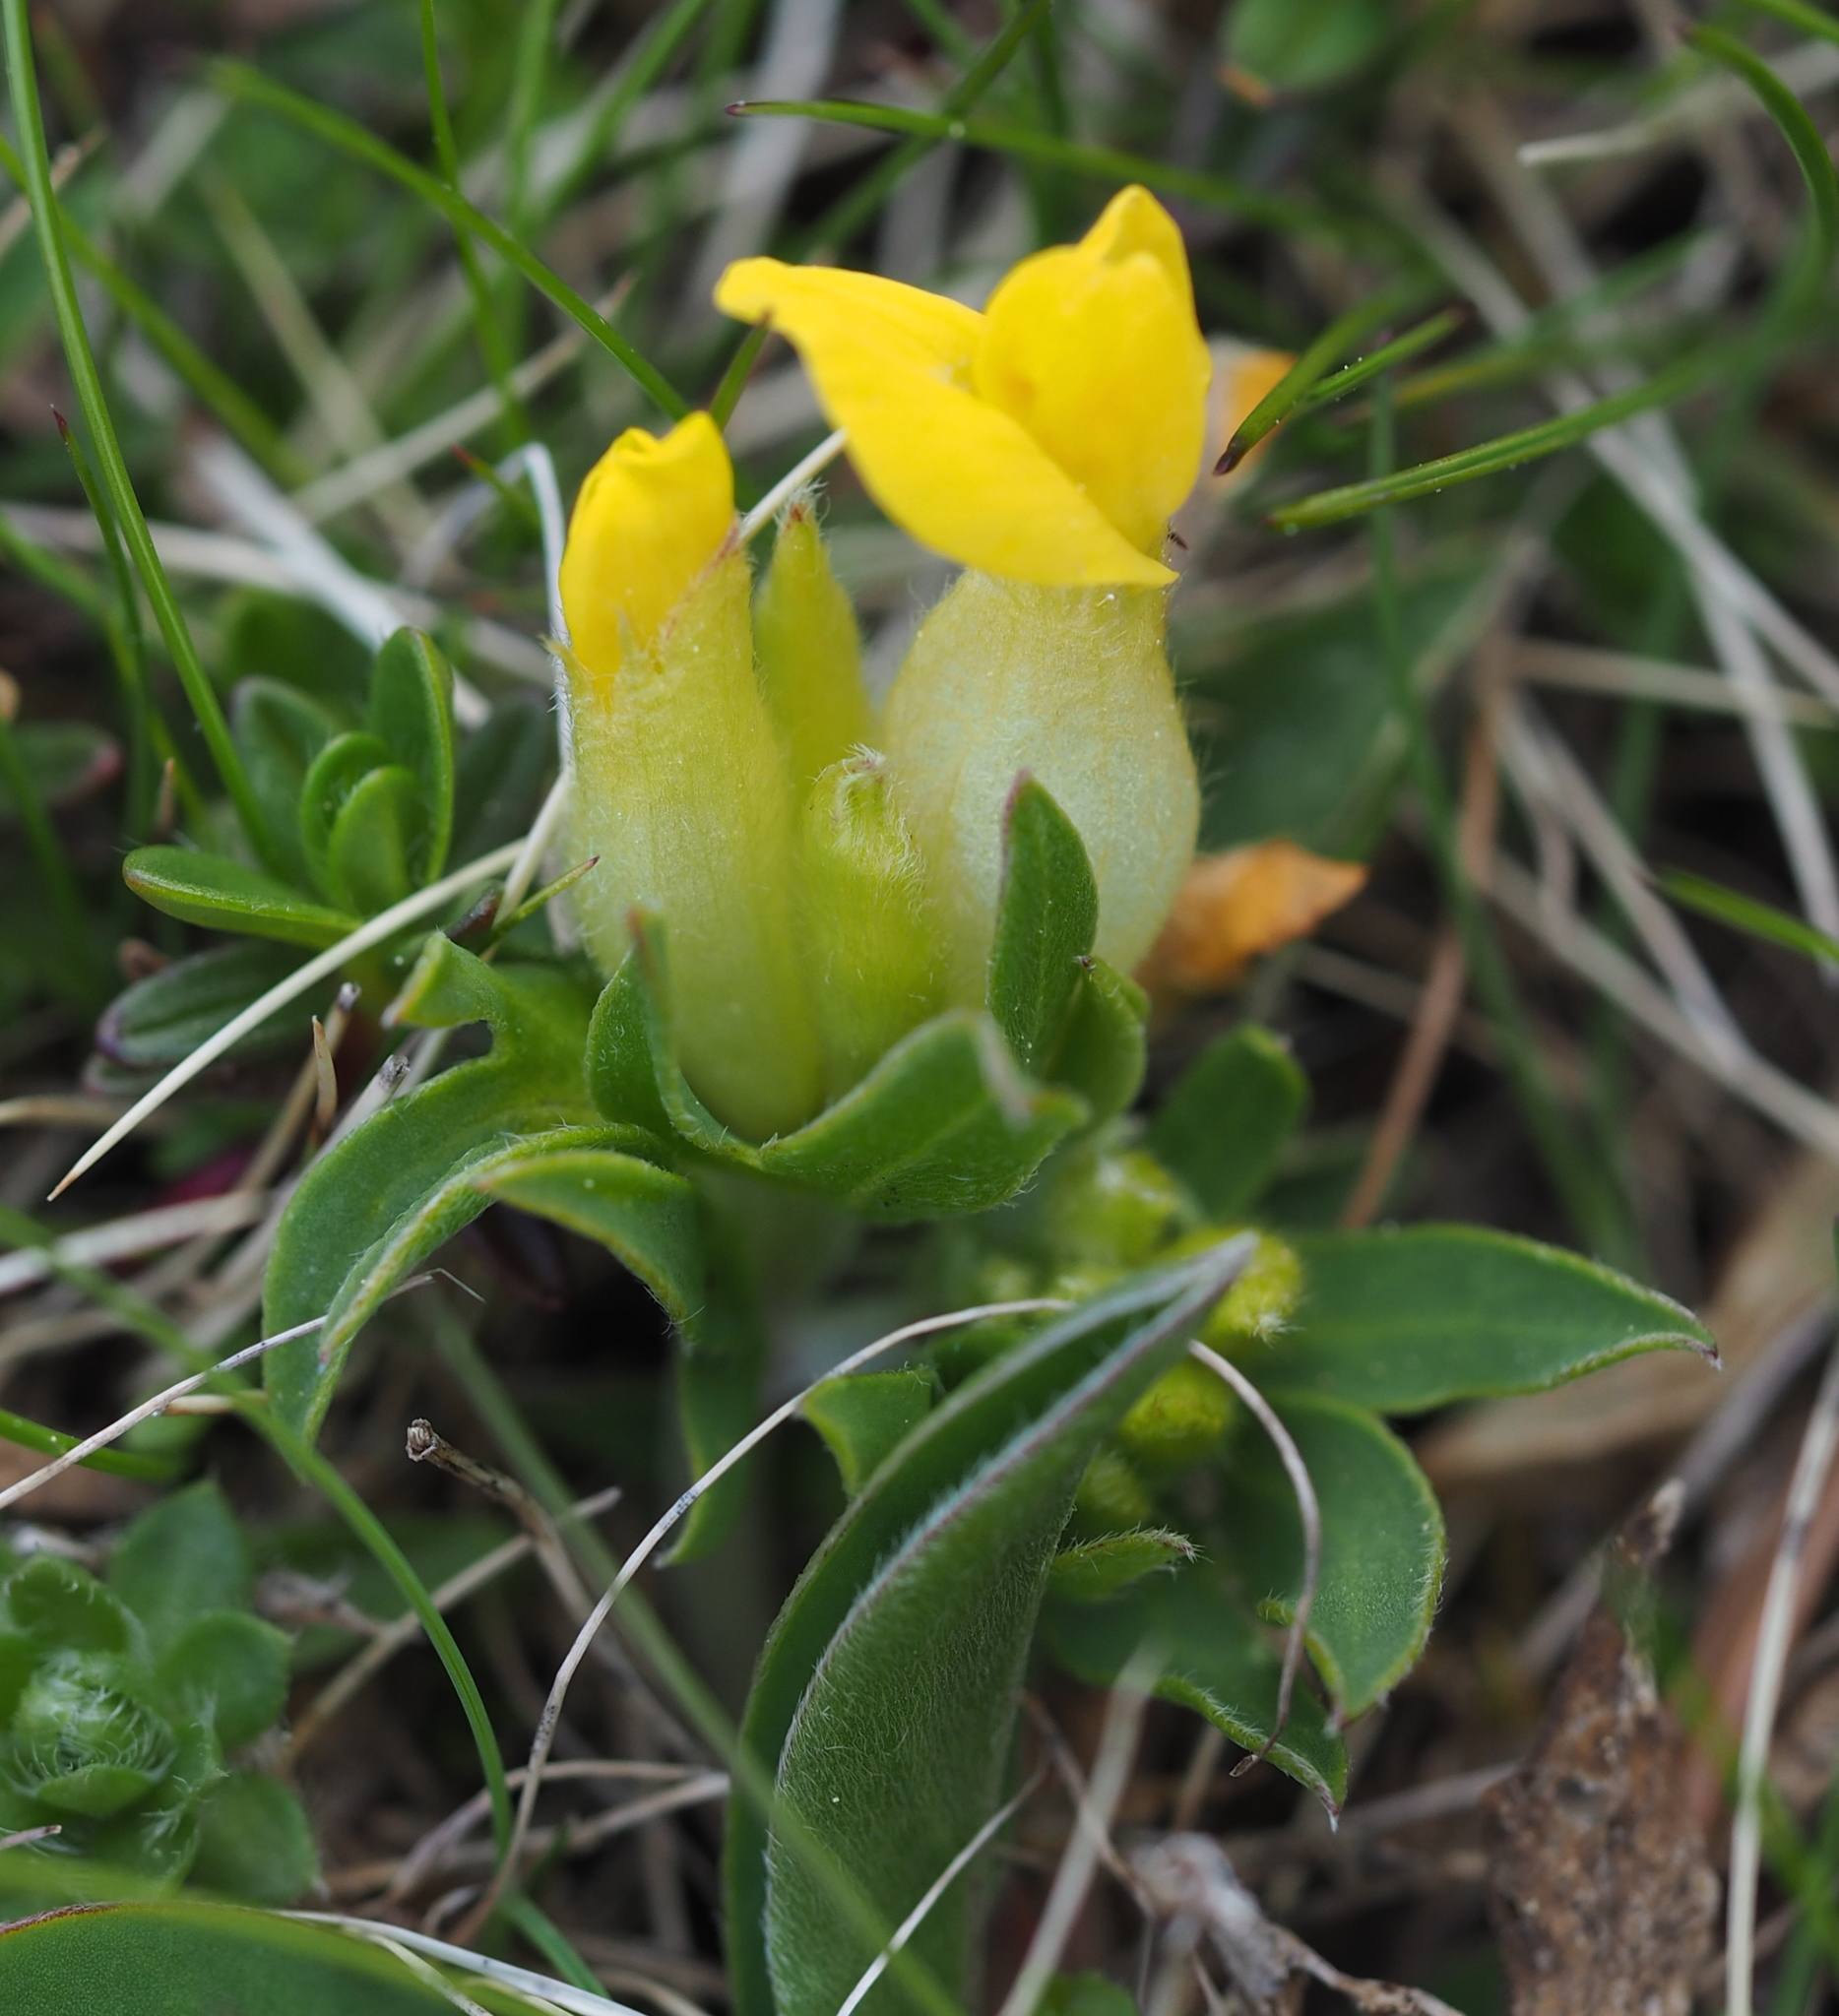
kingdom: Plantae
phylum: Tracheophyta
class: Magnoliopsida
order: Fabales
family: Fabaceae
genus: Anthyllis
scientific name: Anthyllis vulneraria
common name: Kidney vetch
